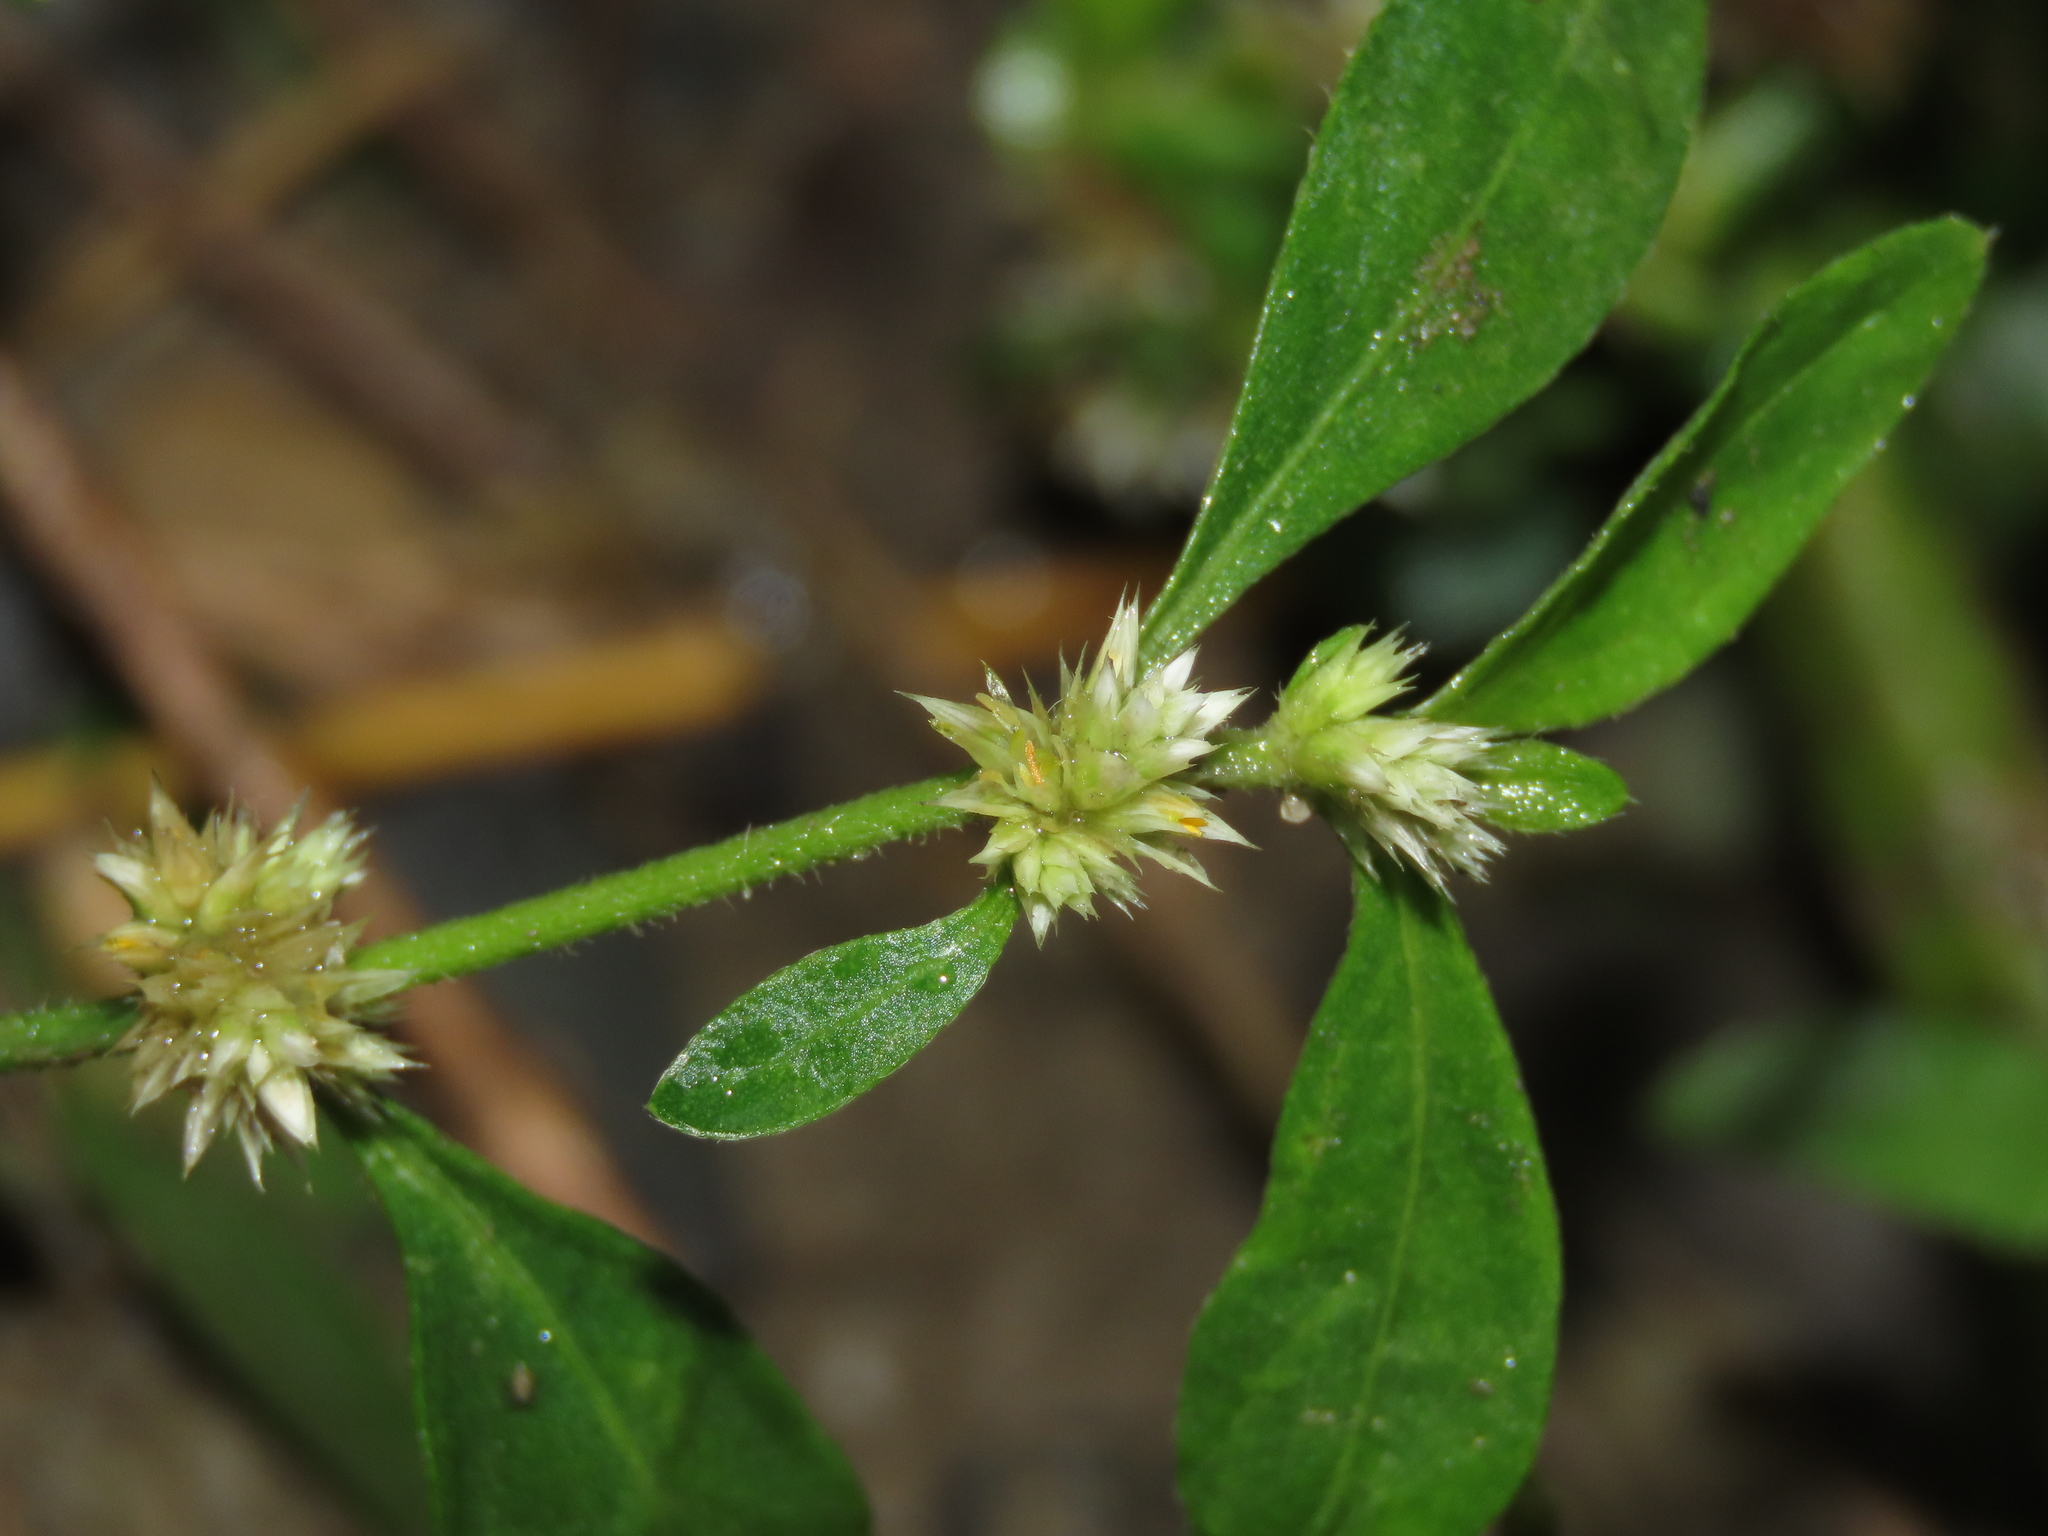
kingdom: Plantae
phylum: Tracheophyta
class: Magnoliopsida
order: Caryophyllales
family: Amaranthaceae
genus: Alternanthera
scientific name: Alternanthera bettzickiana
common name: Calico-plant
